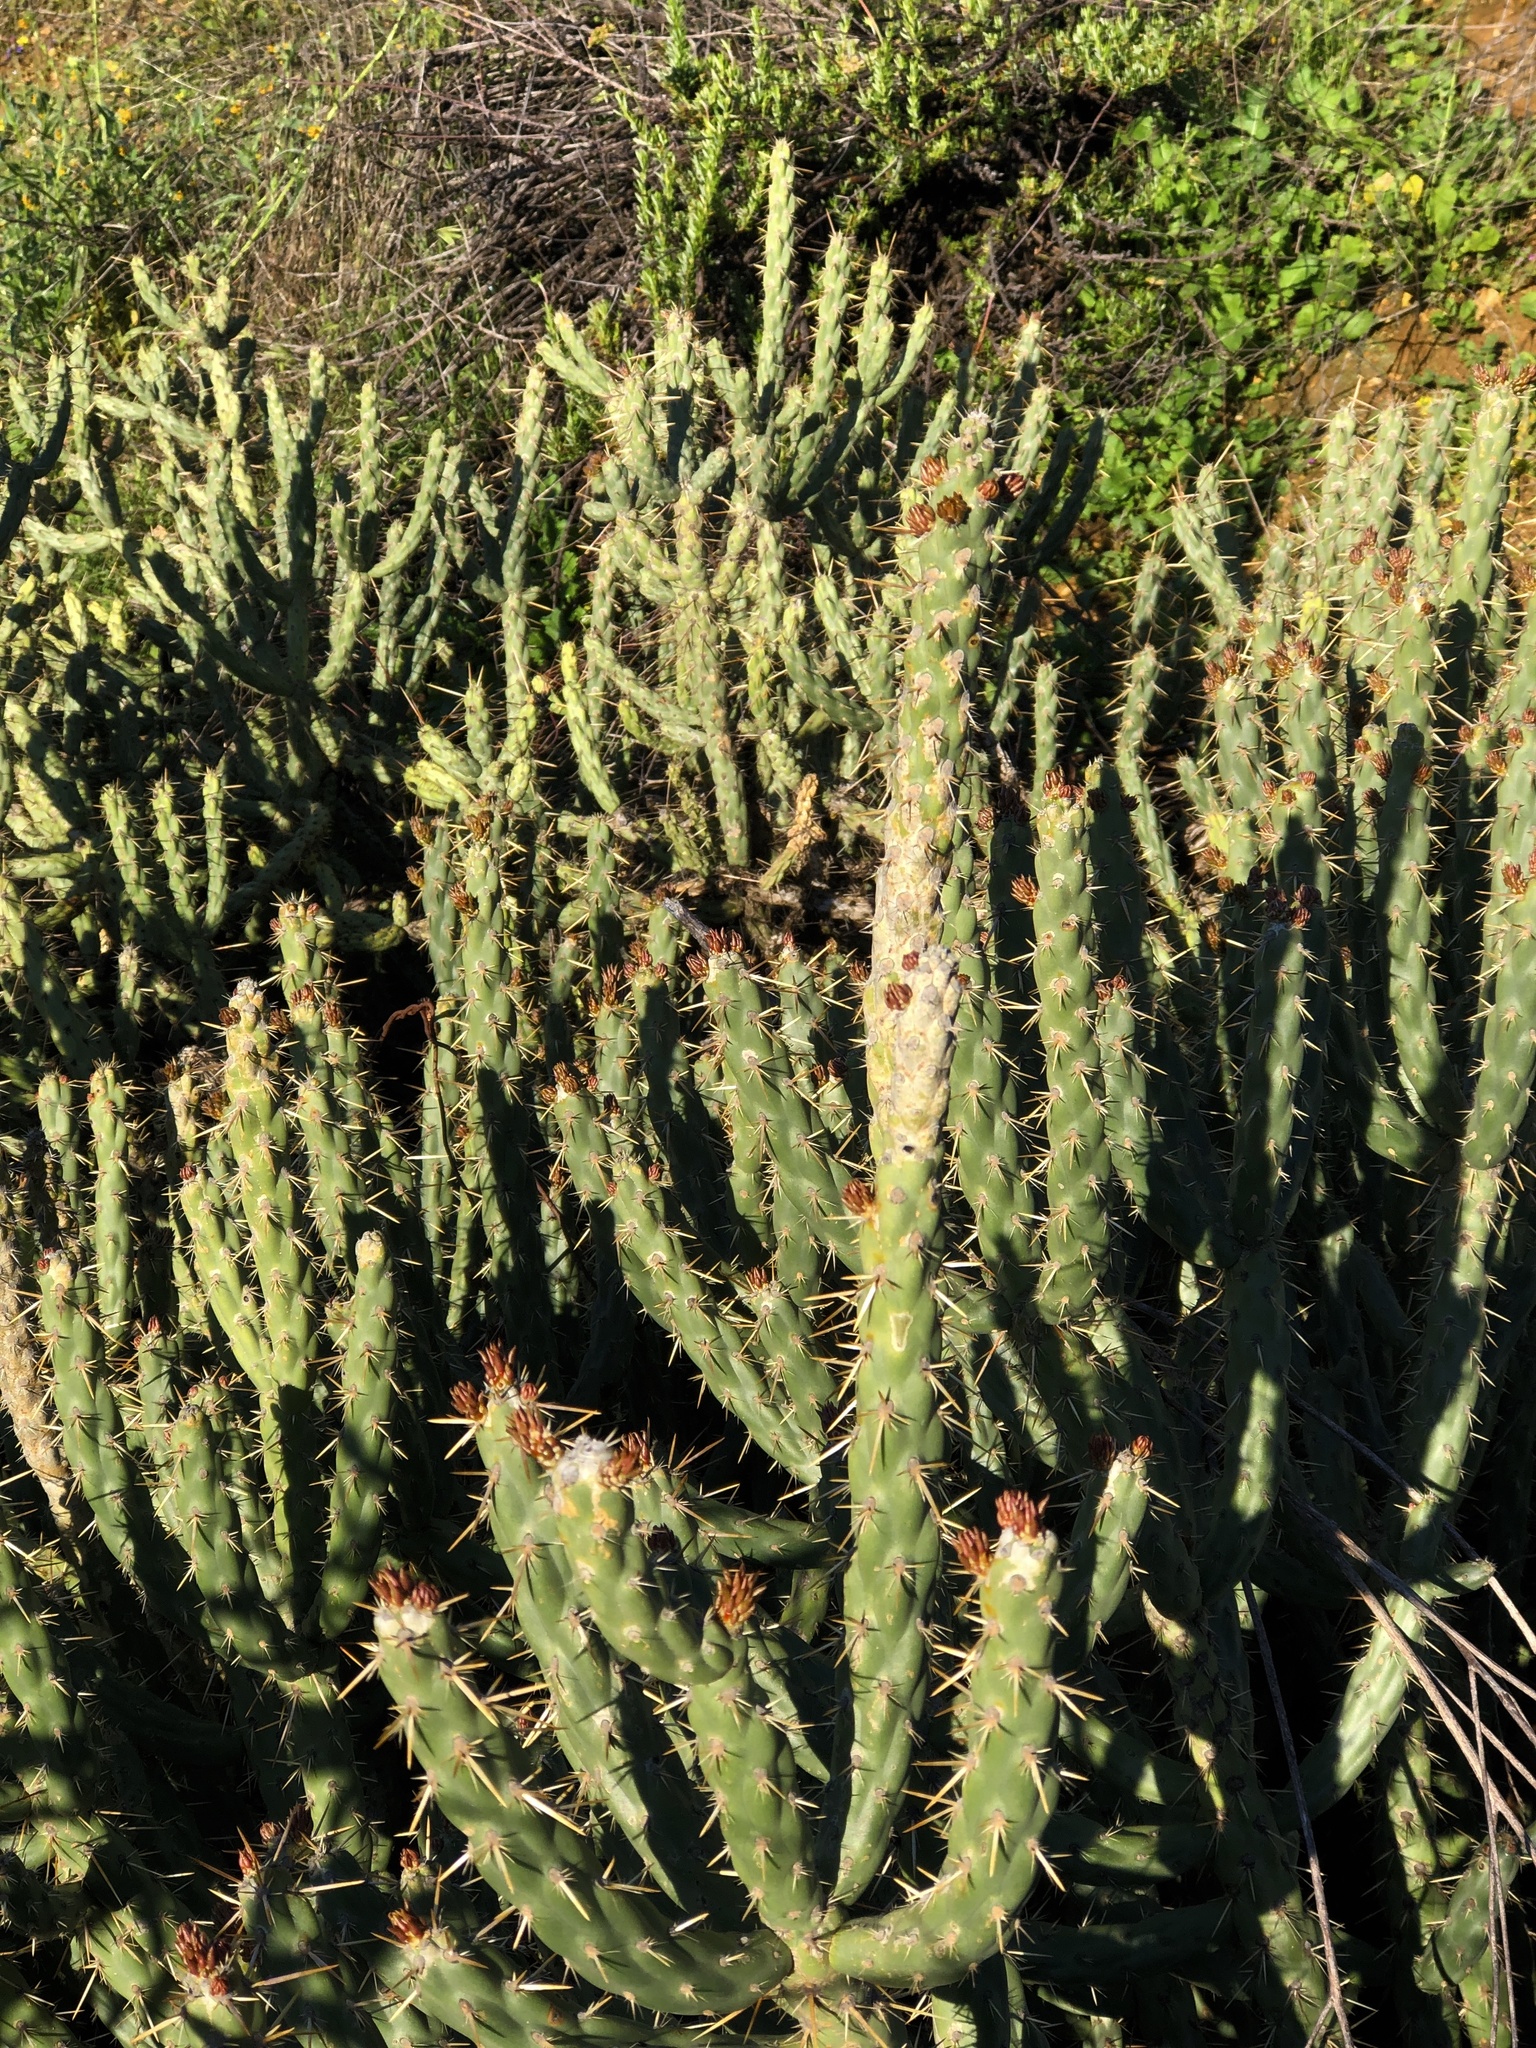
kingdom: Plantae
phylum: Tracheophyta
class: Magnoliopsida
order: Caryophyllales
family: Cactaceae
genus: Cylindropuntia
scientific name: Cylindropuntia bernardina
